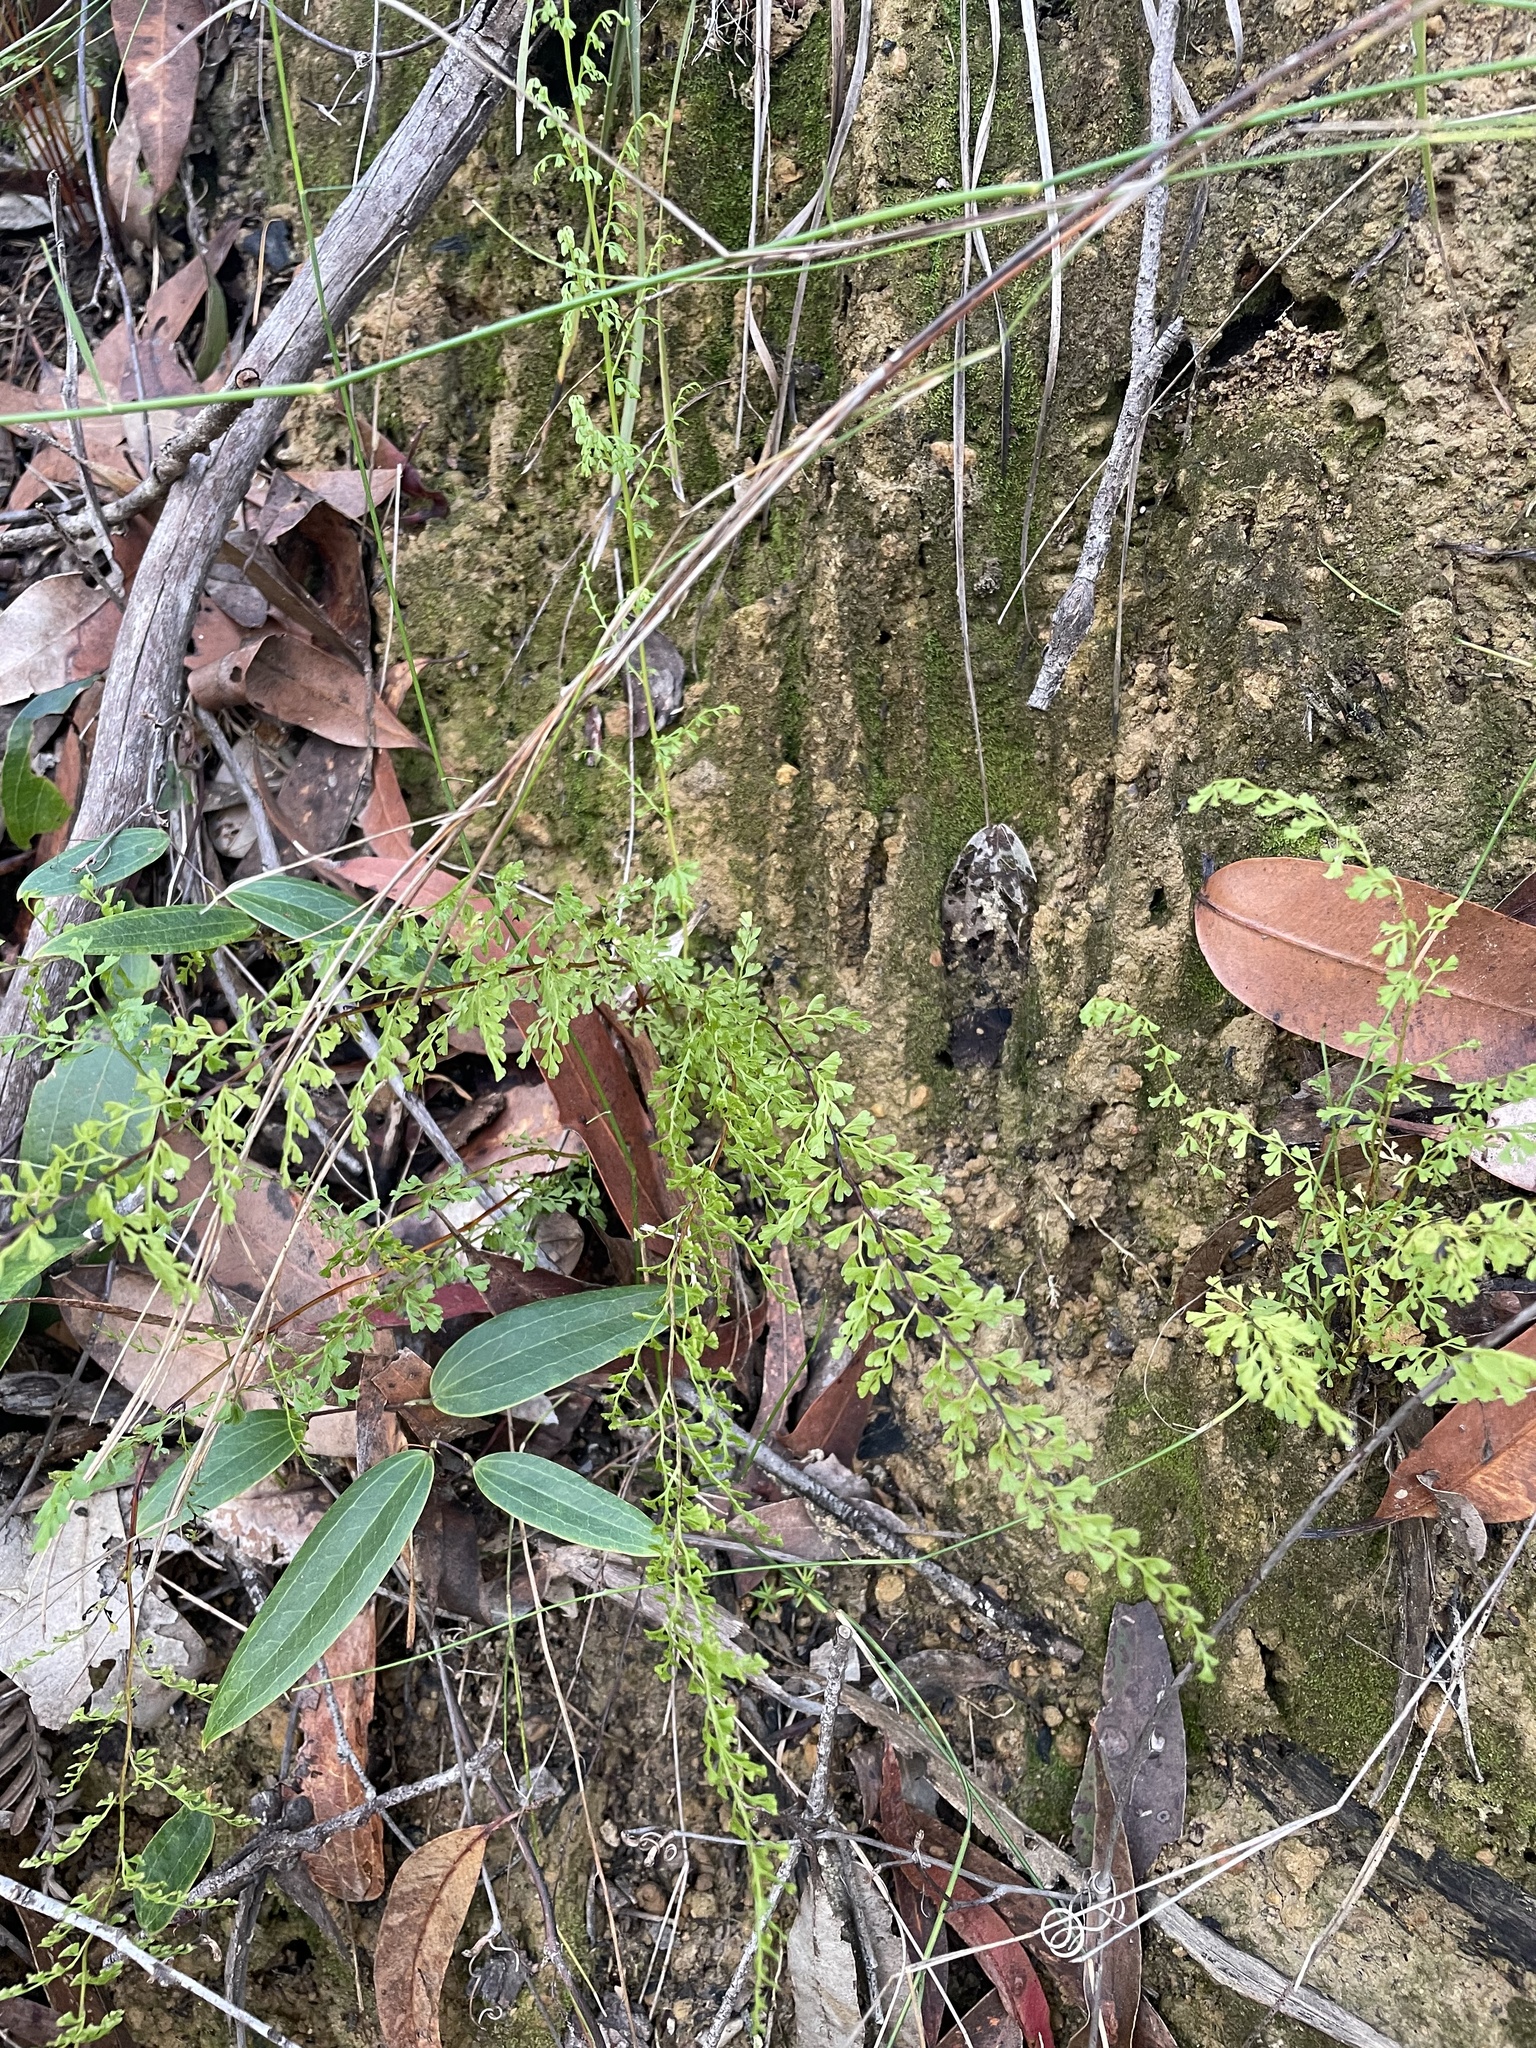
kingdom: Plantae
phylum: Tracheophyta
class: Polypodiopsida
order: Polypodiales
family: Lindsaeaceae
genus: Lindsaea
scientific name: Lindsaea microphylla
